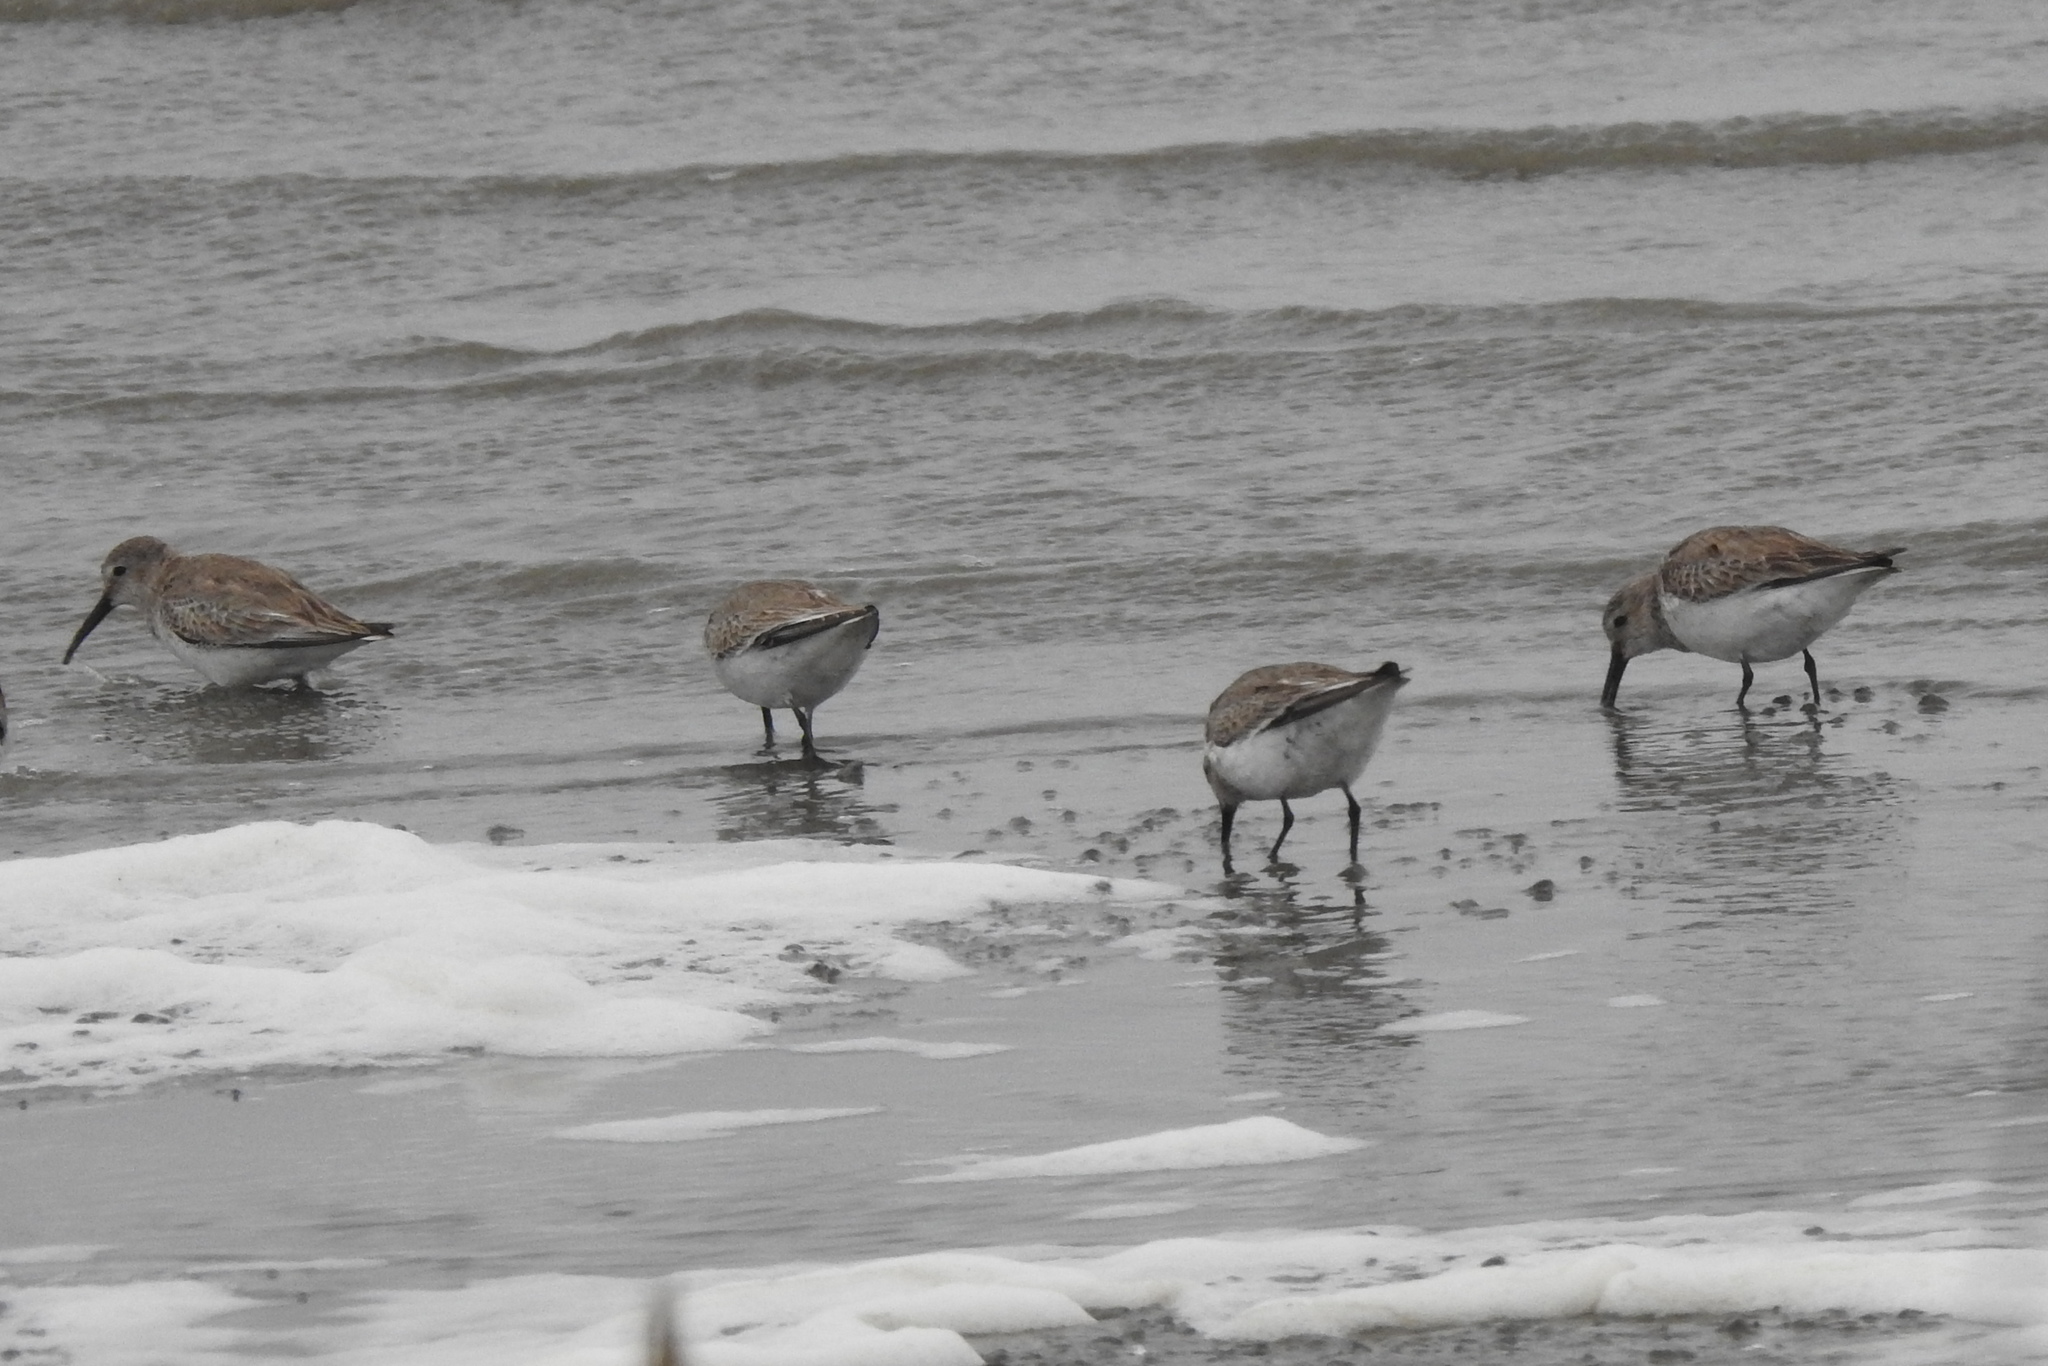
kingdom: Animalia
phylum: Chordata
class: Aves
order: Charadriiformes
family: Scolopacidae
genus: Calidris
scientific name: Calidris alpina
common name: Dunlin
